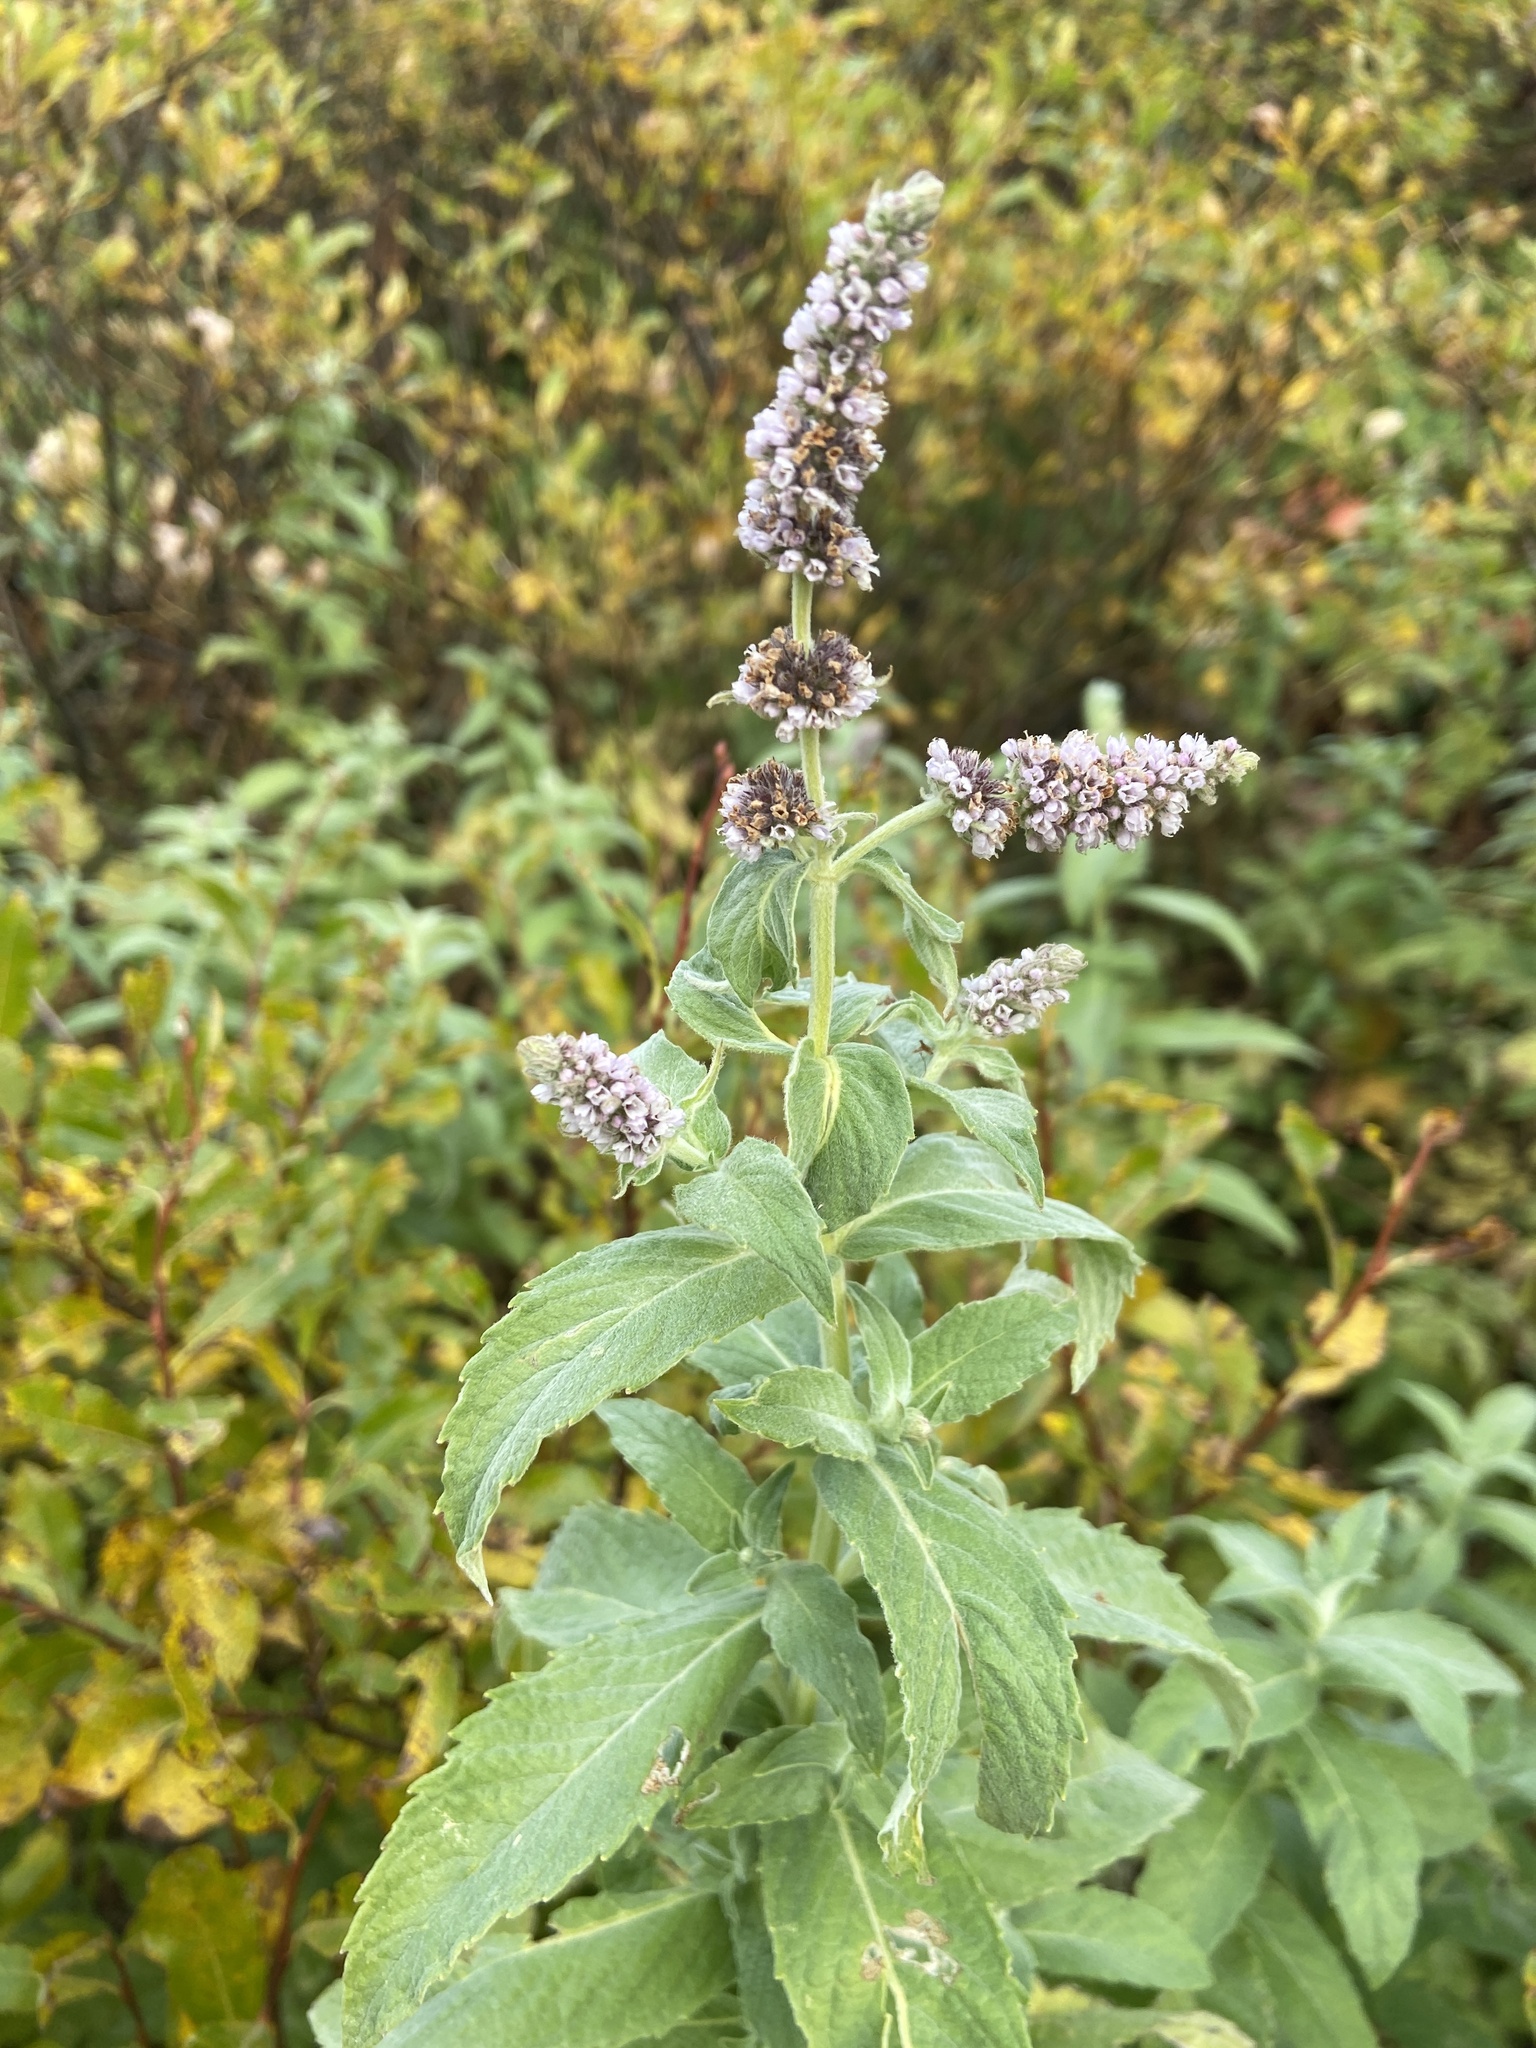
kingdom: Plantae
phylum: Tracheophyta
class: Magnoliopsida
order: Lamiales
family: Lamiaceae
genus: Mentha
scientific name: Mentha longifolia
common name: Horse mint
